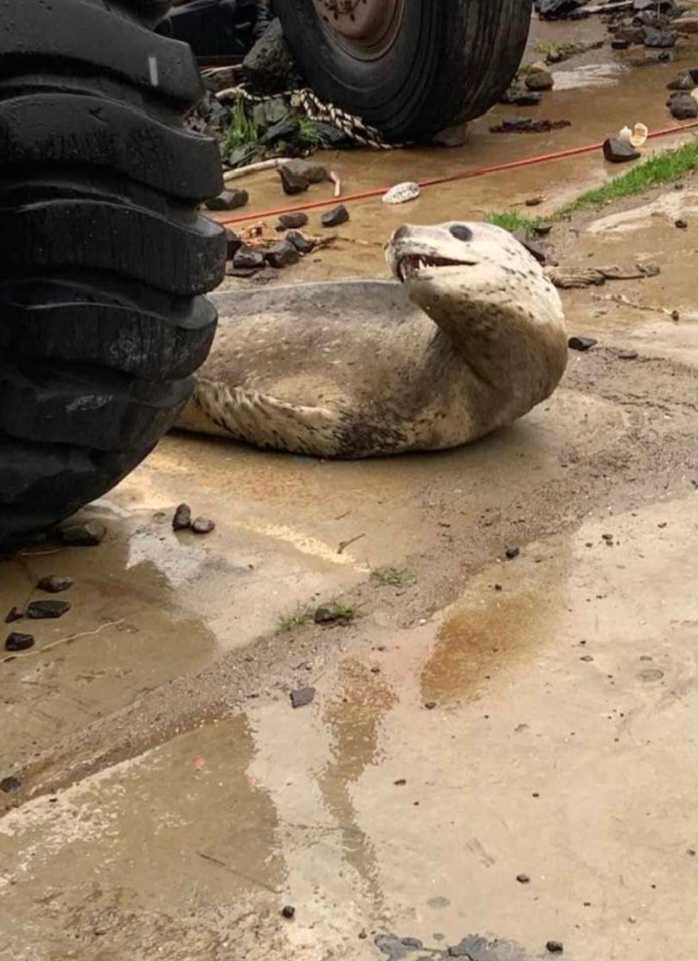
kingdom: Animalia
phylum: Chordata
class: Mammalia
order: Carnivora
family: Phocidae
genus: Hydrurga
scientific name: Hydrurga leptonyx
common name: Leopard seal
